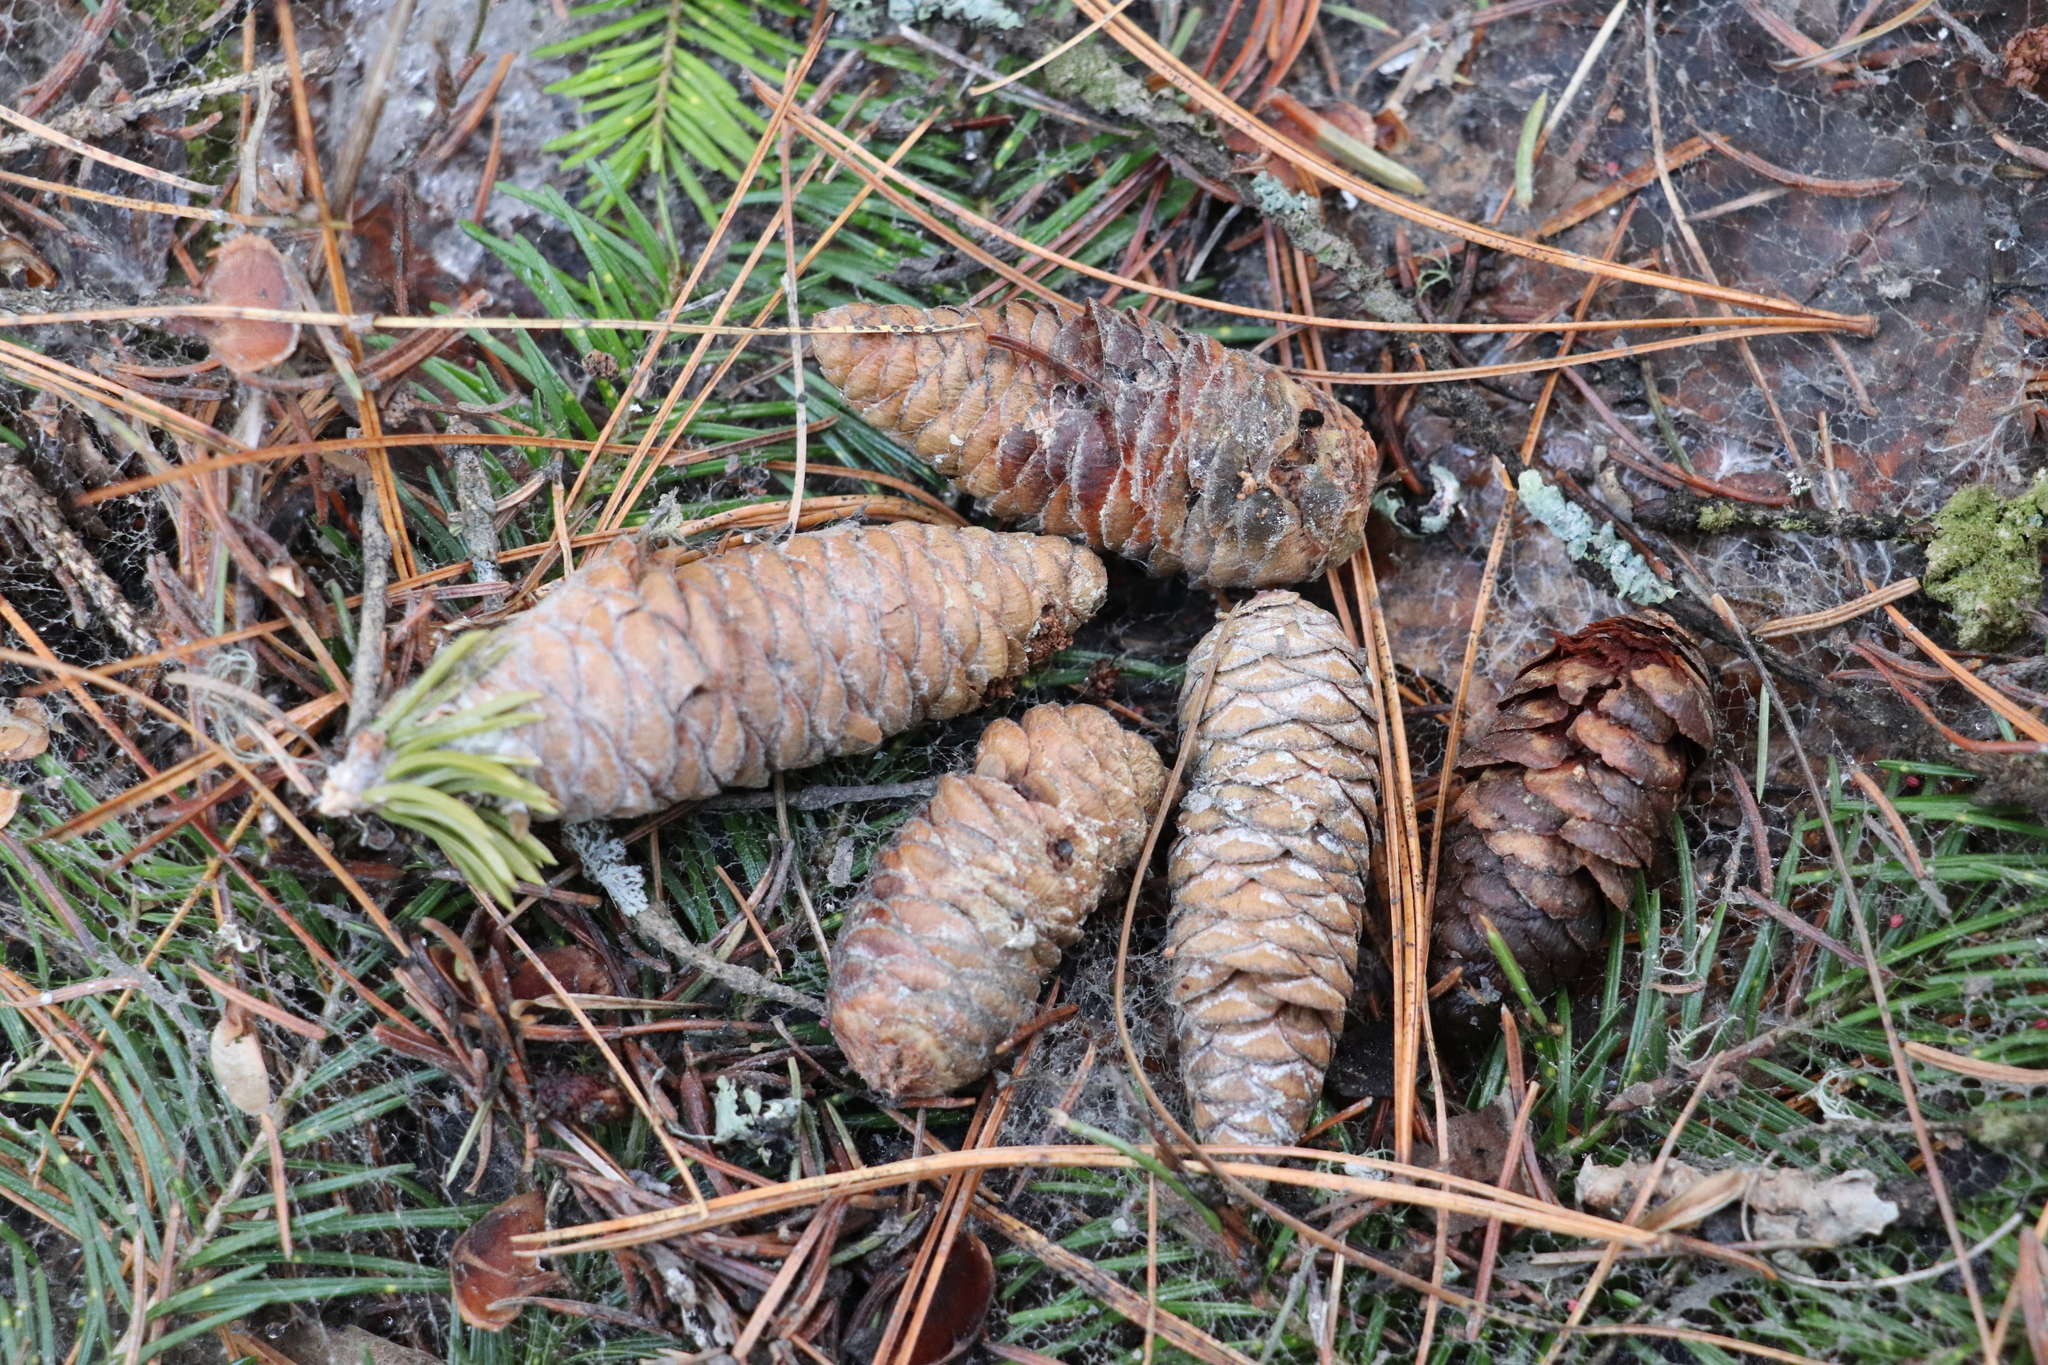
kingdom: Plantae
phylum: Tracheophyta
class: Pinopsida
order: Pinales
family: Pinaceae
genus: Picea
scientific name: Picea obovata
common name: Siberian spruce
